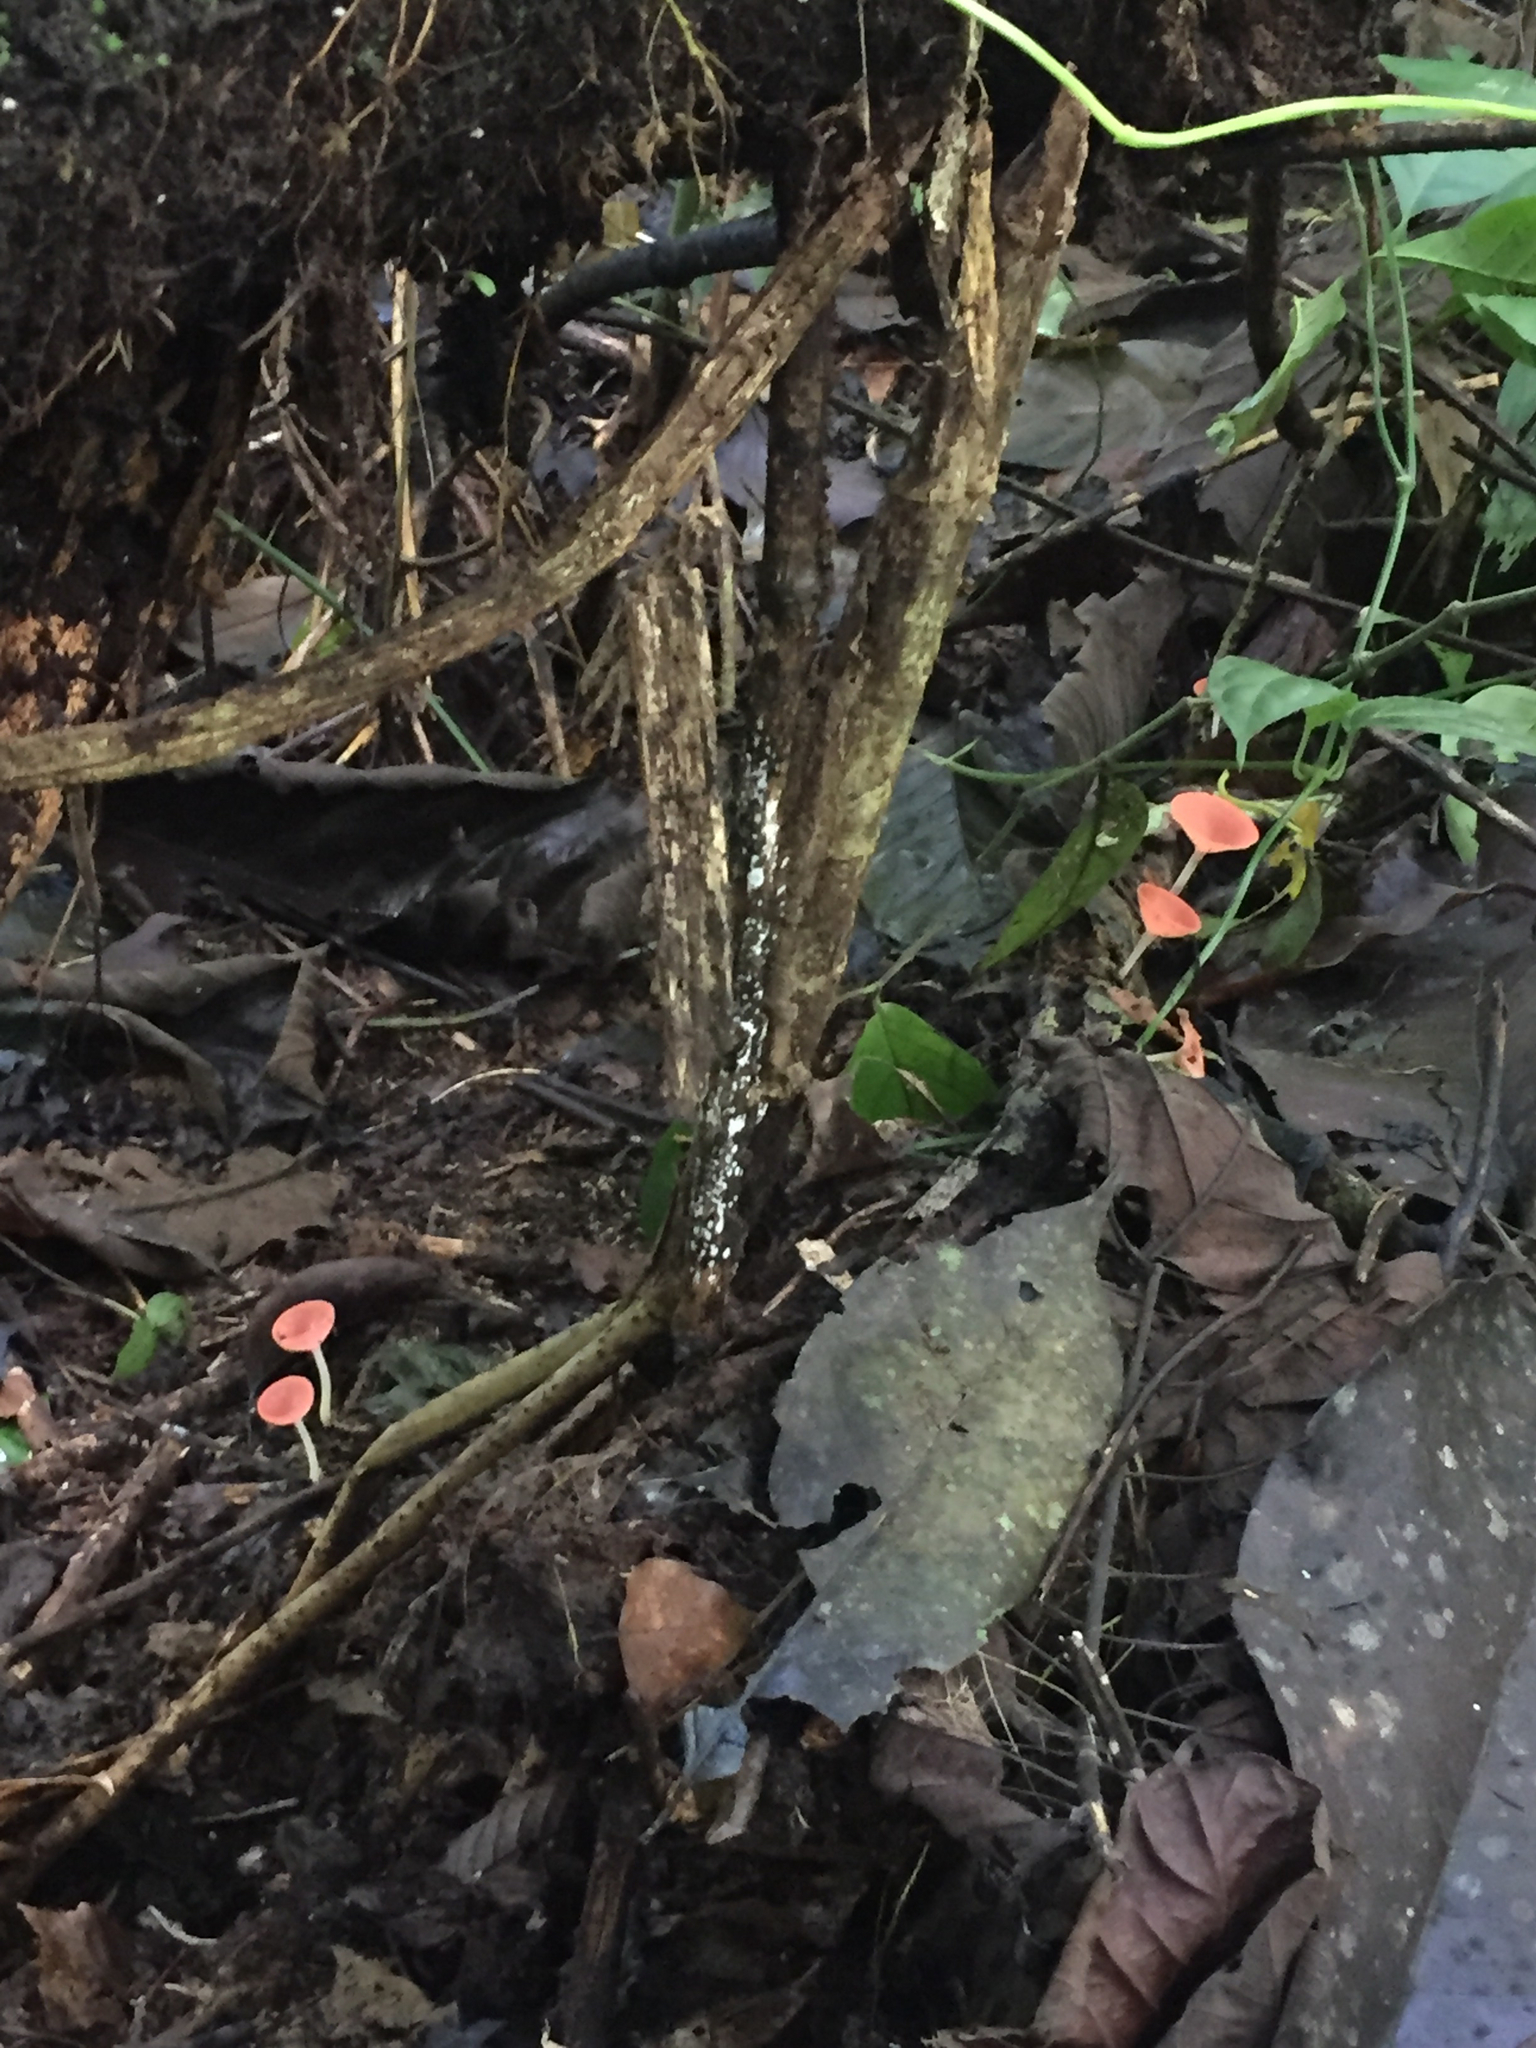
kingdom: Fungi
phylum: Ascomycota
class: Pezizomycetes
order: Pezizales
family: Sarcoscyphaceae
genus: Cookeina
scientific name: Cookeina speciosa
